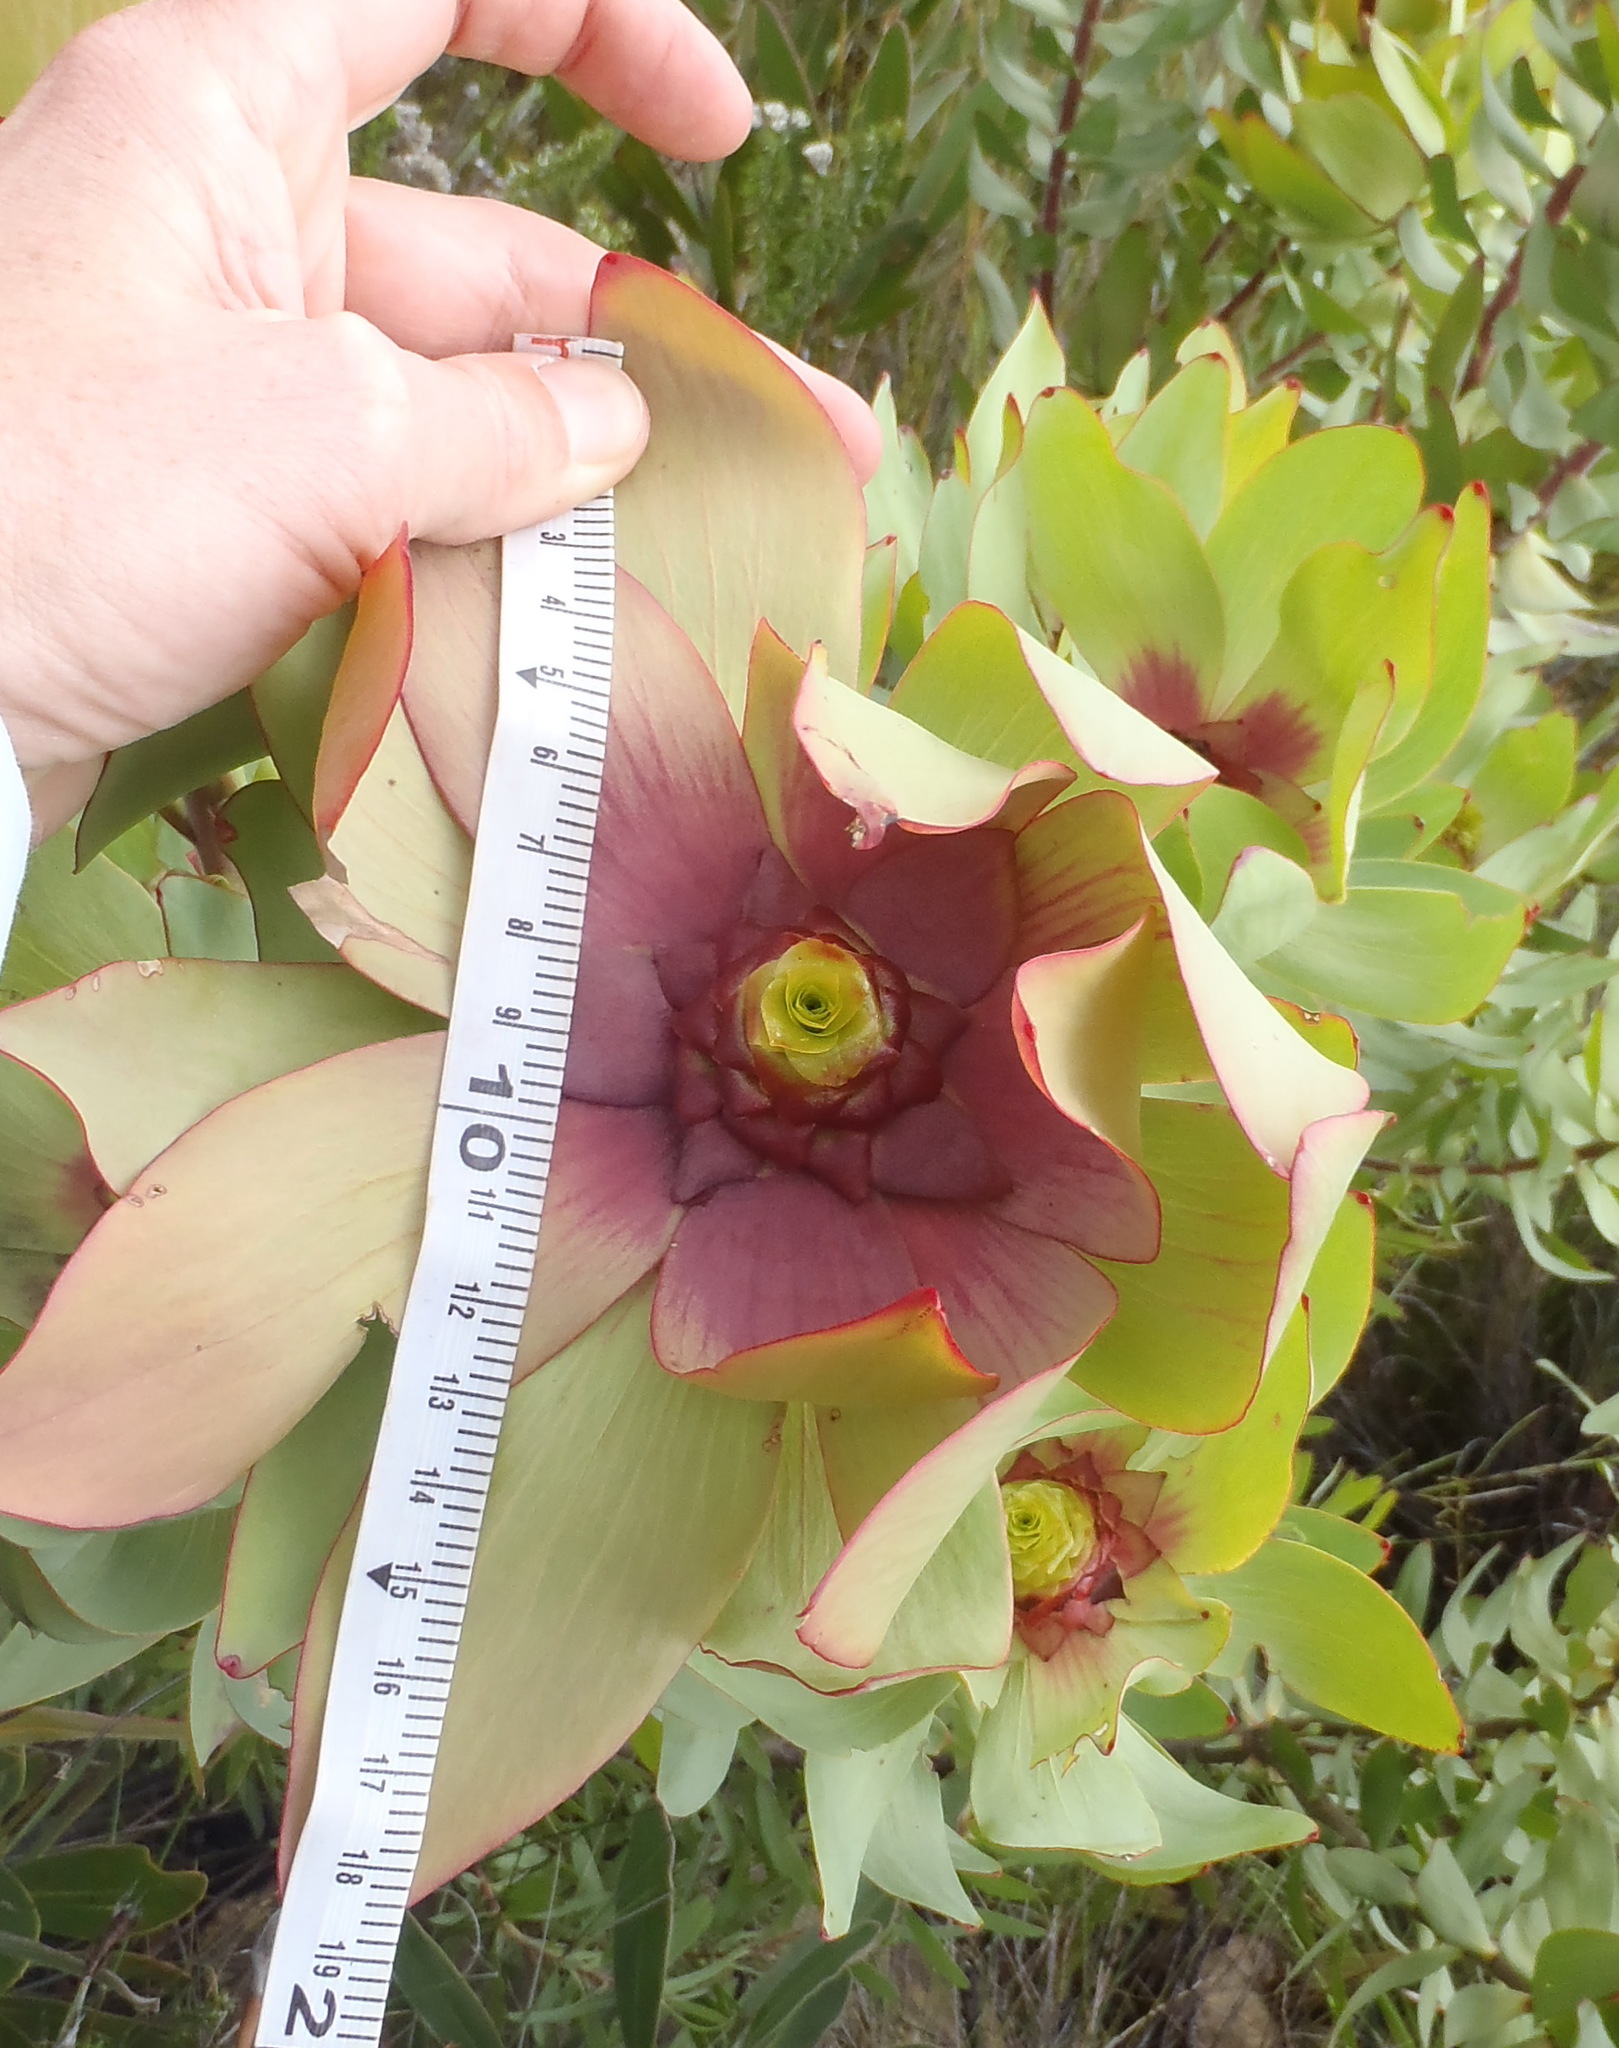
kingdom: Plantae
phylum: Tracheophyta
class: Magnoliopsida
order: Proteales
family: Proteaceae
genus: Leucadendron
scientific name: Leucadendron tinctum
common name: Spicy conebush
